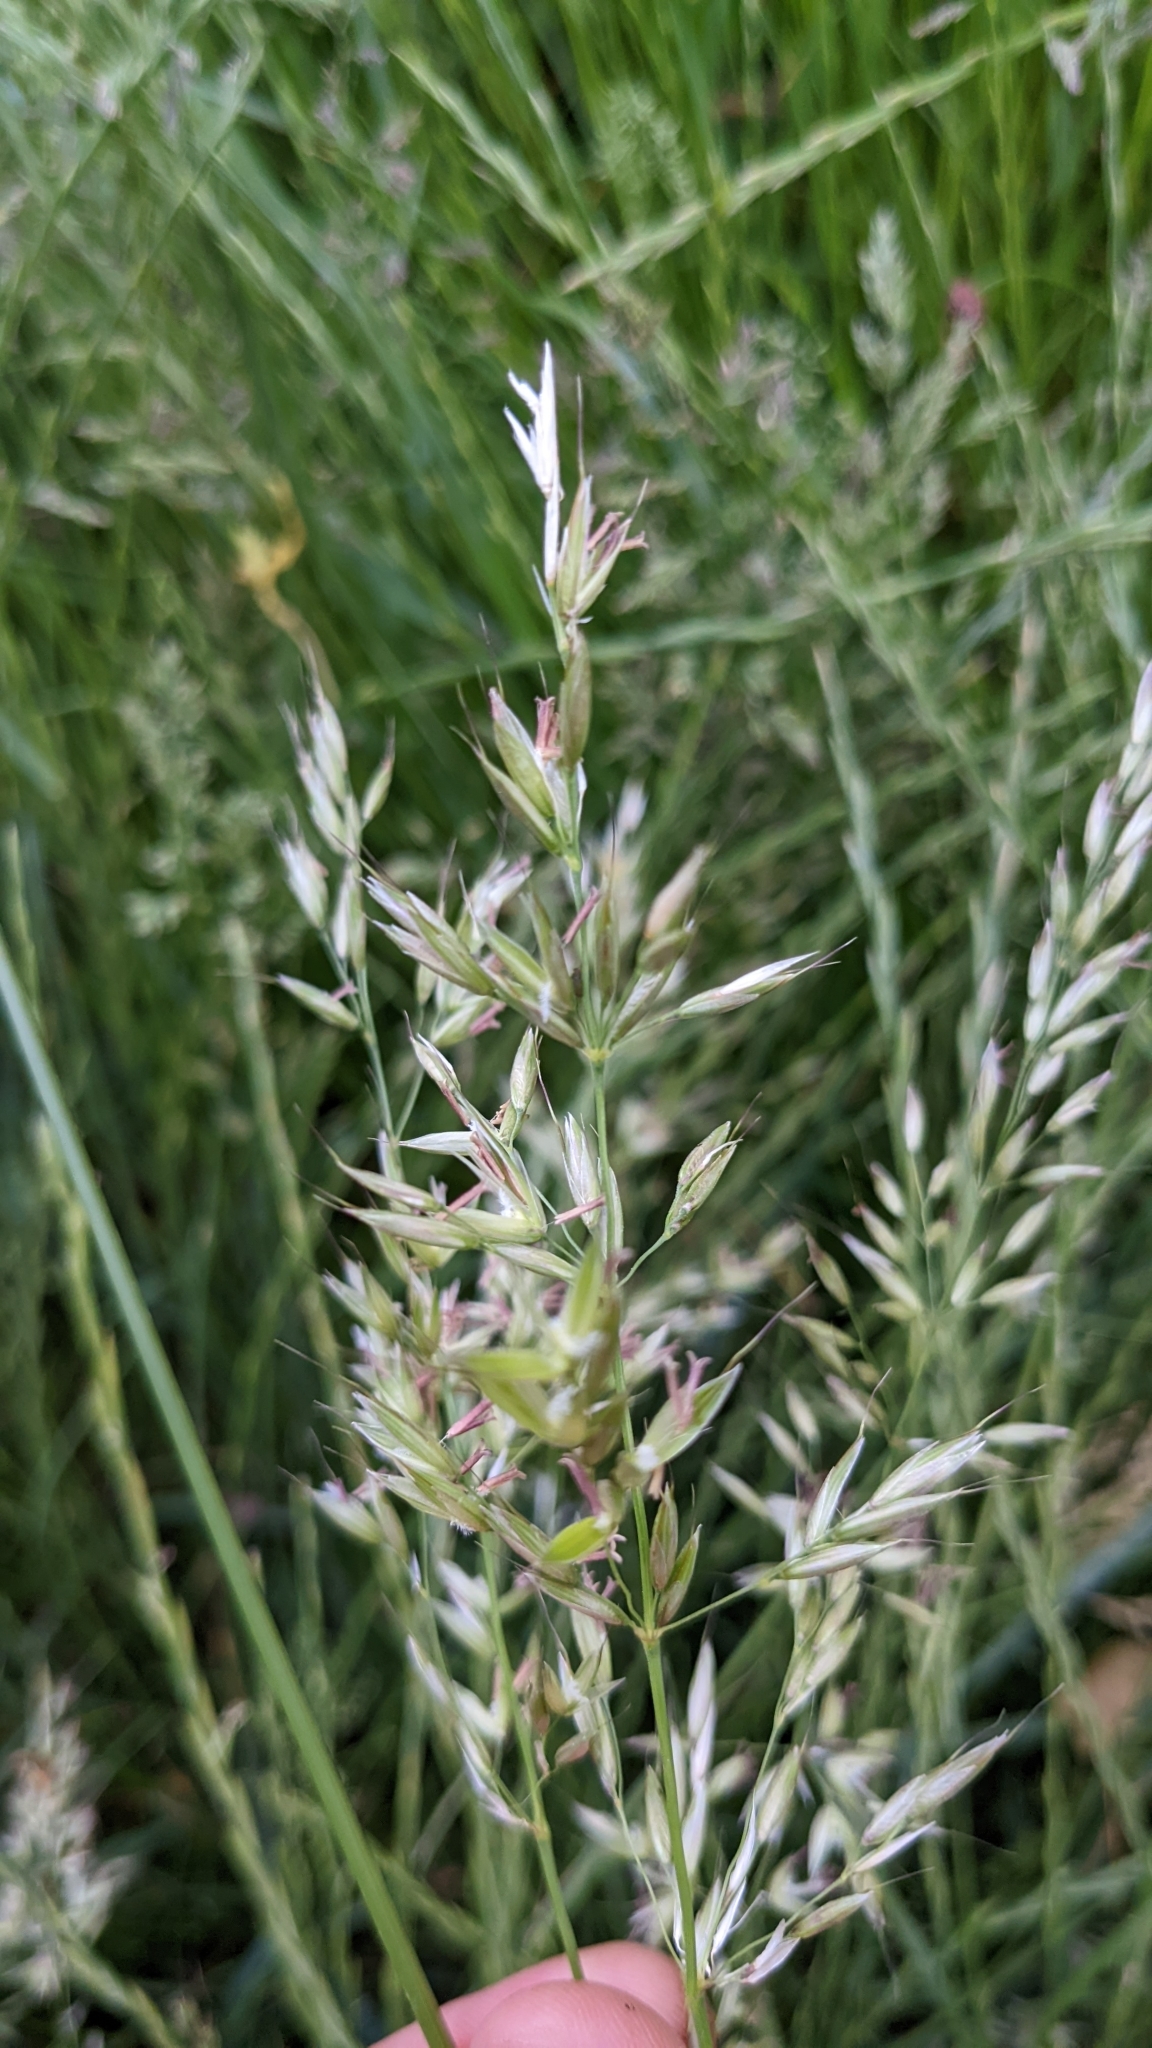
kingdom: Plantae
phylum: Tracheophyta
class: Liliopsida
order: Poales
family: Poaceae
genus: Arrhenatherum
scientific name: Arrhenatherum elatius
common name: Tall oatgrass
